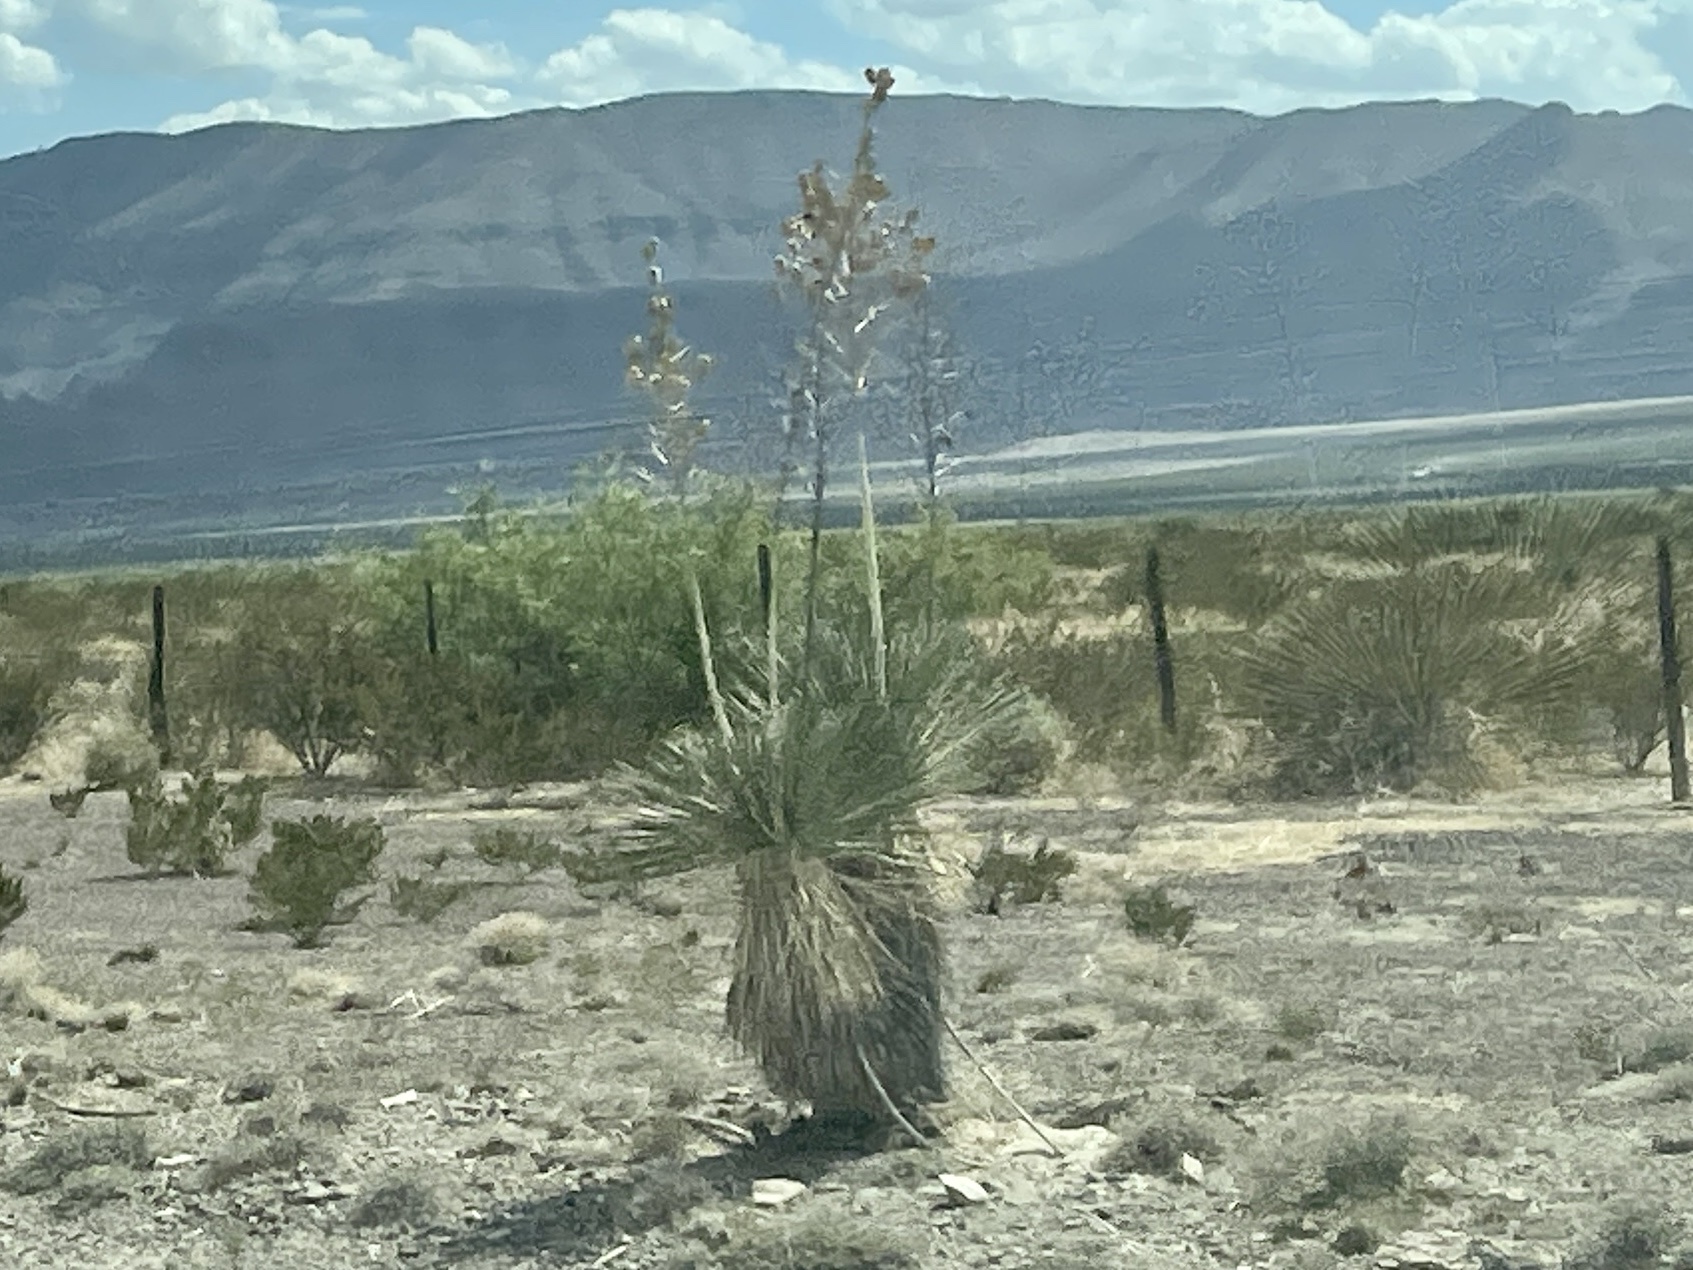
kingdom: Plantae
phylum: Tracheophyta
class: Liliopsida
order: Asparagales
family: Asparagaceae
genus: Yucca
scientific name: Yucca elata
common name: Palmella
